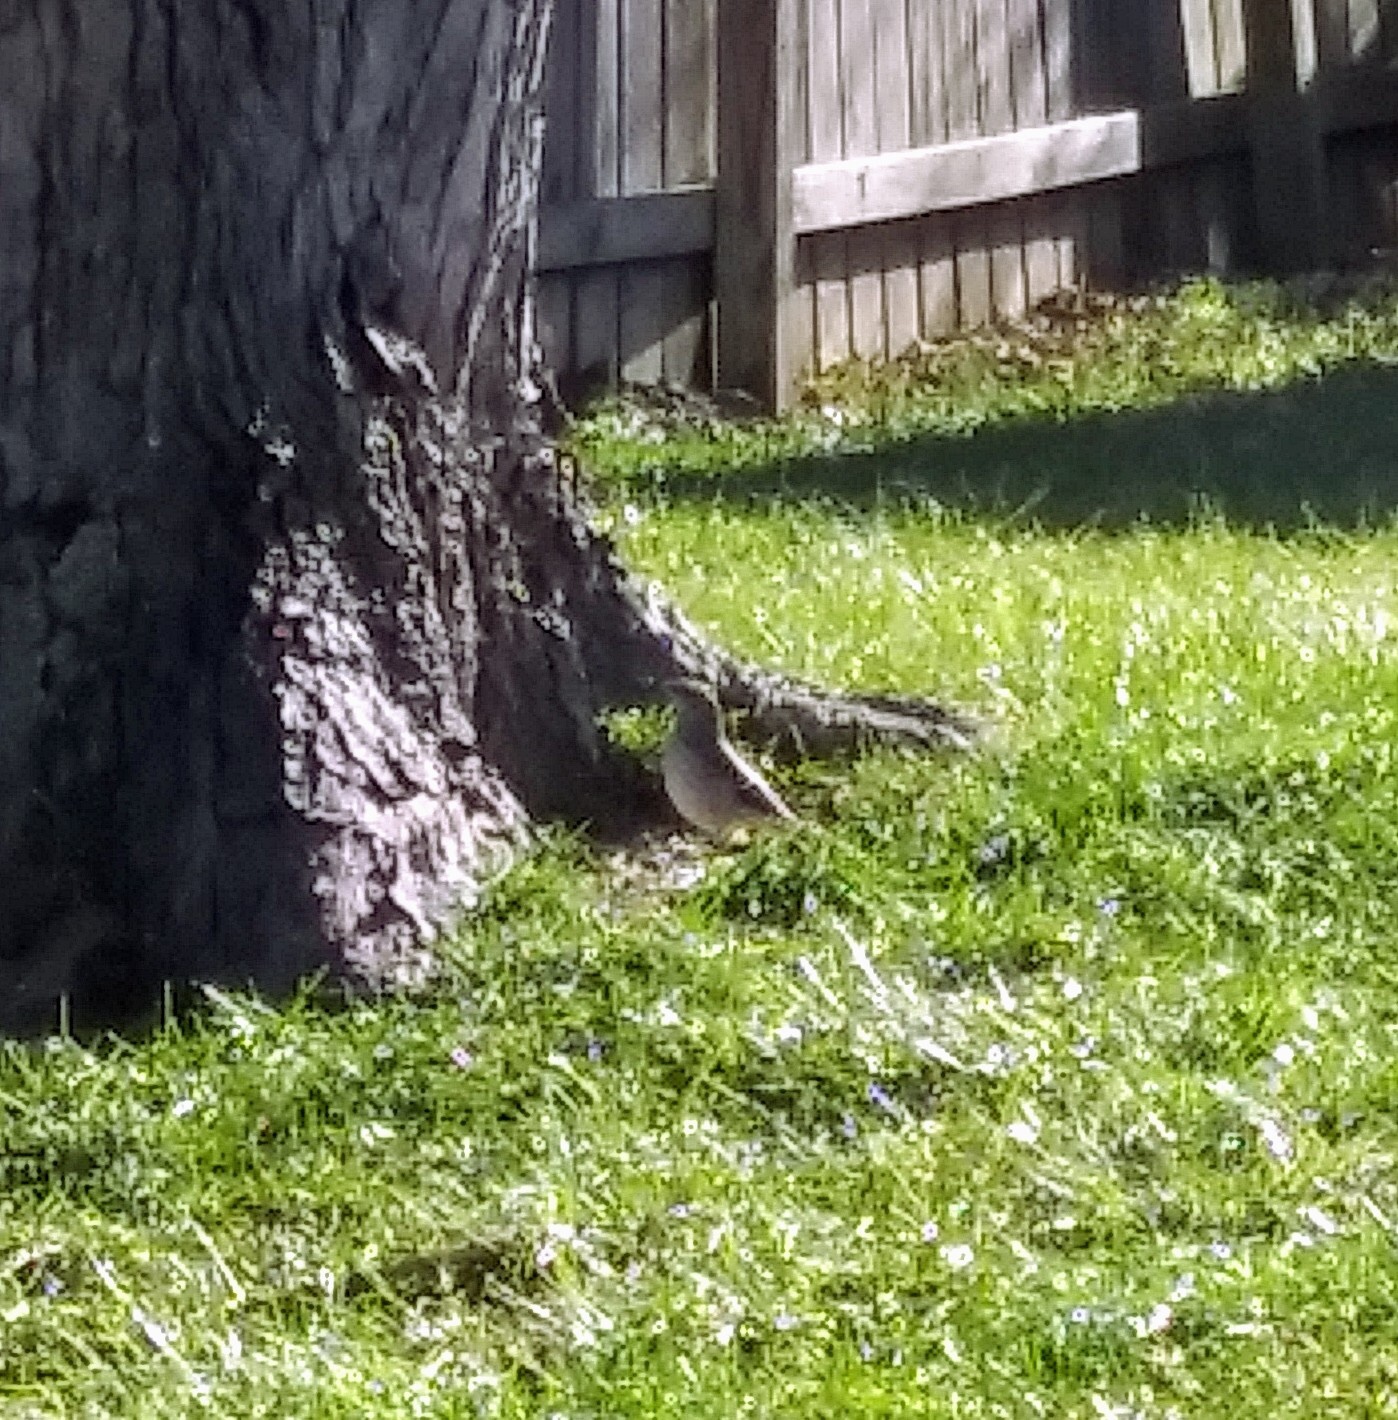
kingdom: Animalia
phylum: Chordata
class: Aves
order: Passeriformes
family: Mimidae
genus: Mimus
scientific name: Mimus polyglottos
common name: Northern mockingbird
